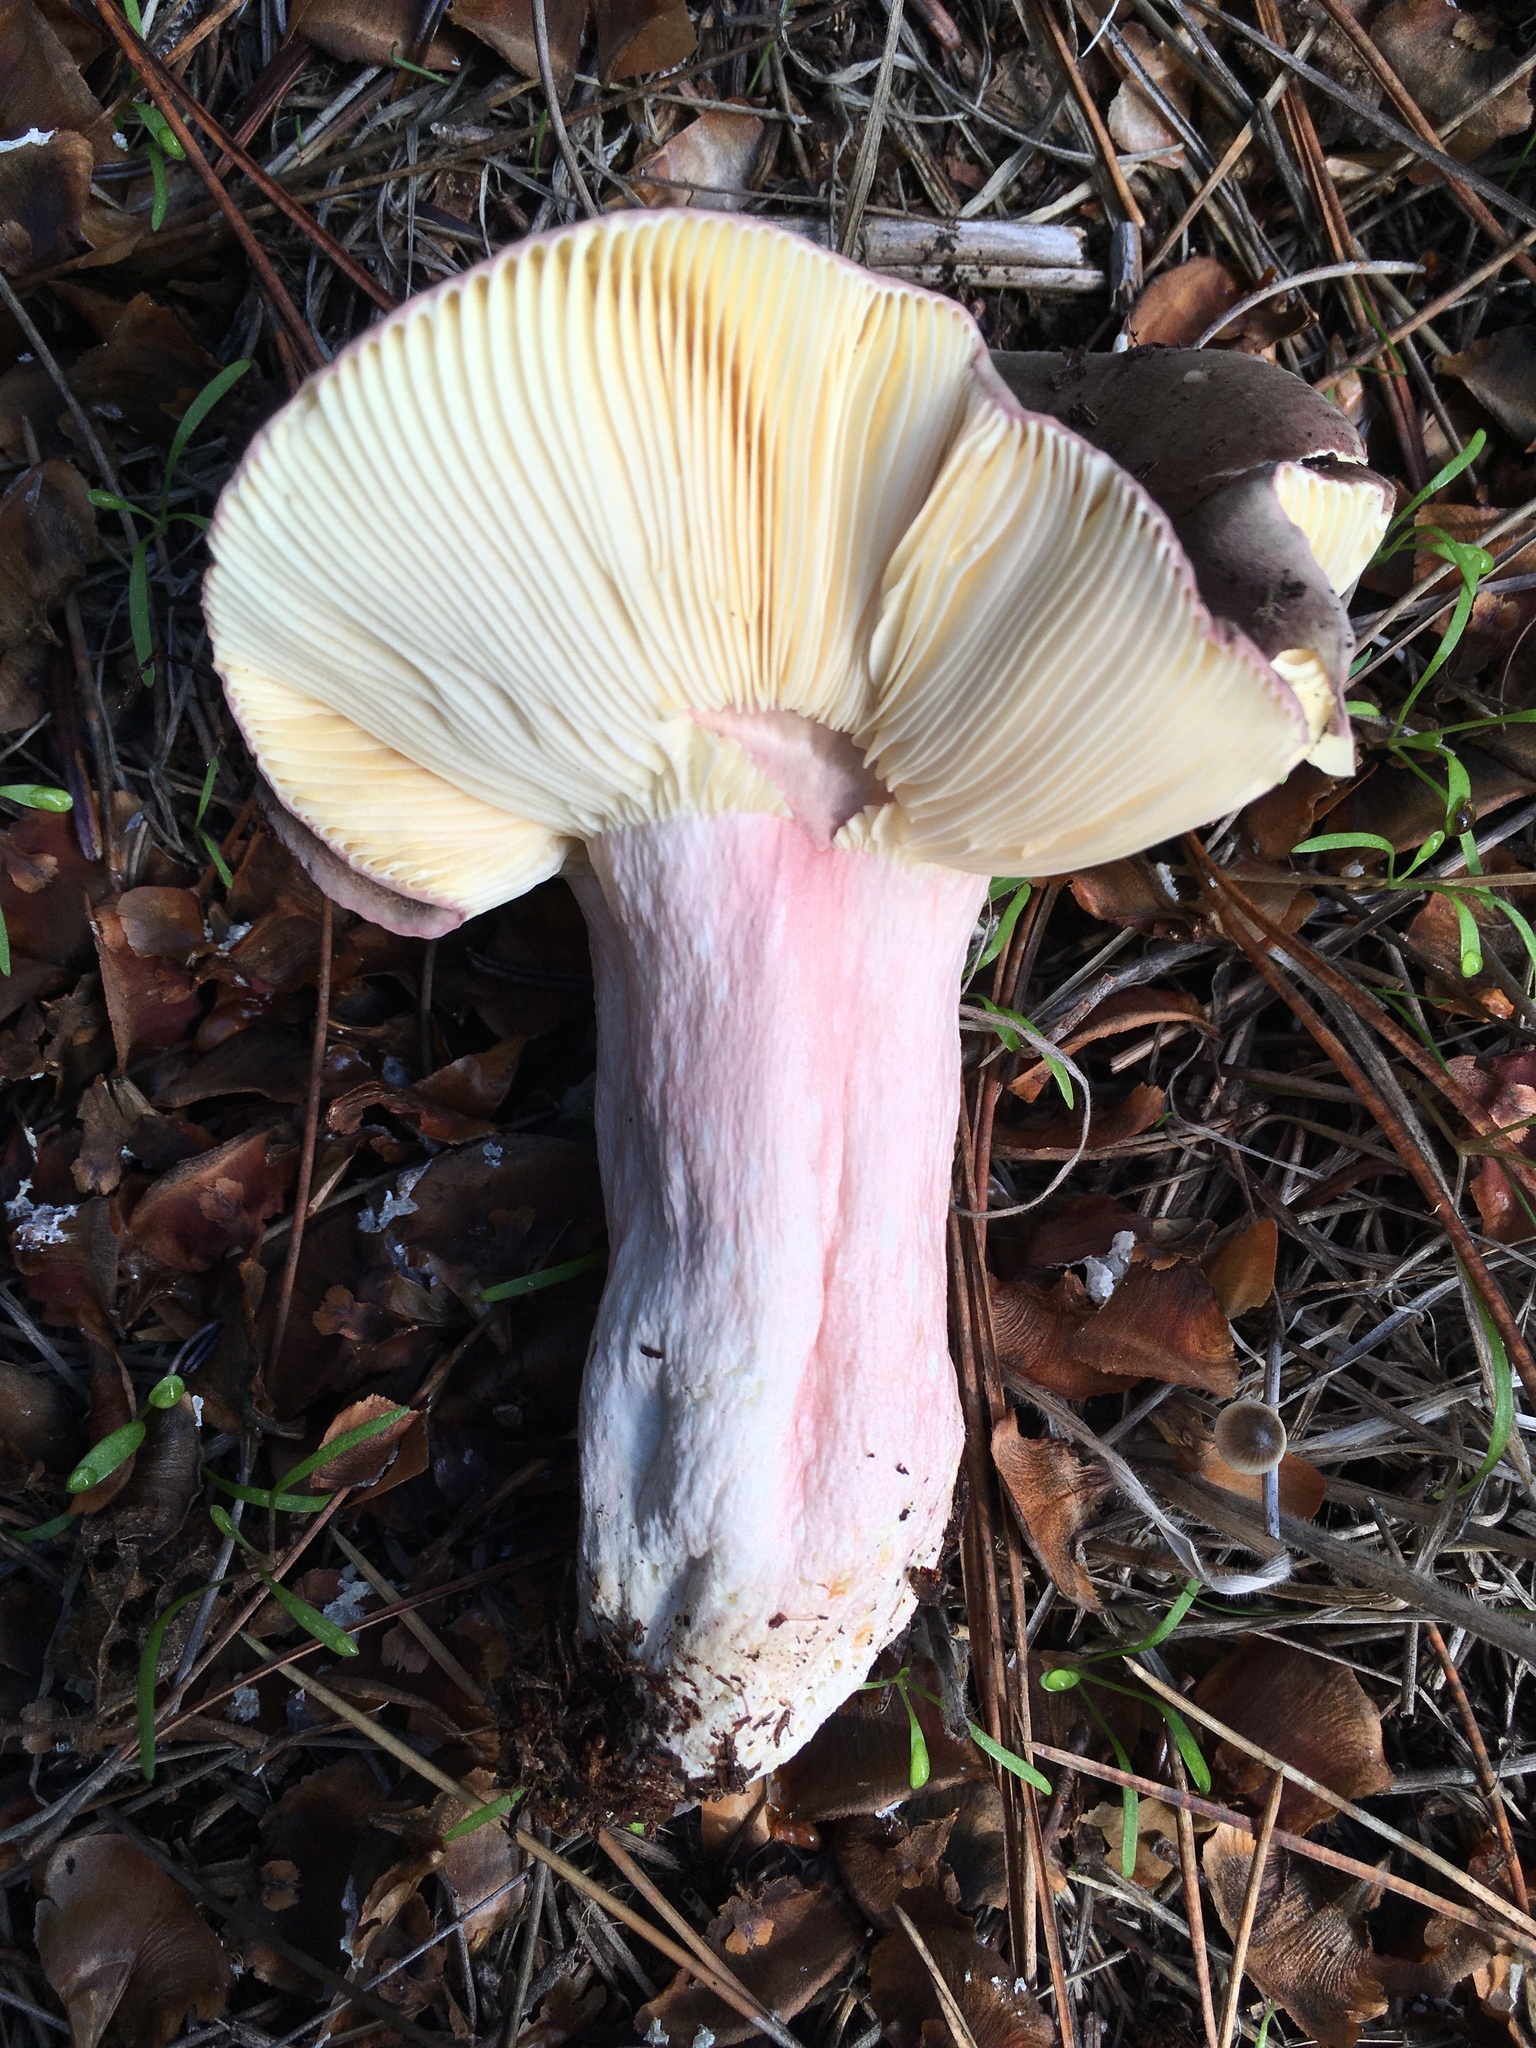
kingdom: Fungi
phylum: Basidiomycota
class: Agaricomycetes
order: Russulales
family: Russulaceae
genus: Russula
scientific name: Russula xerampelina
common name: Crab brittlegill
